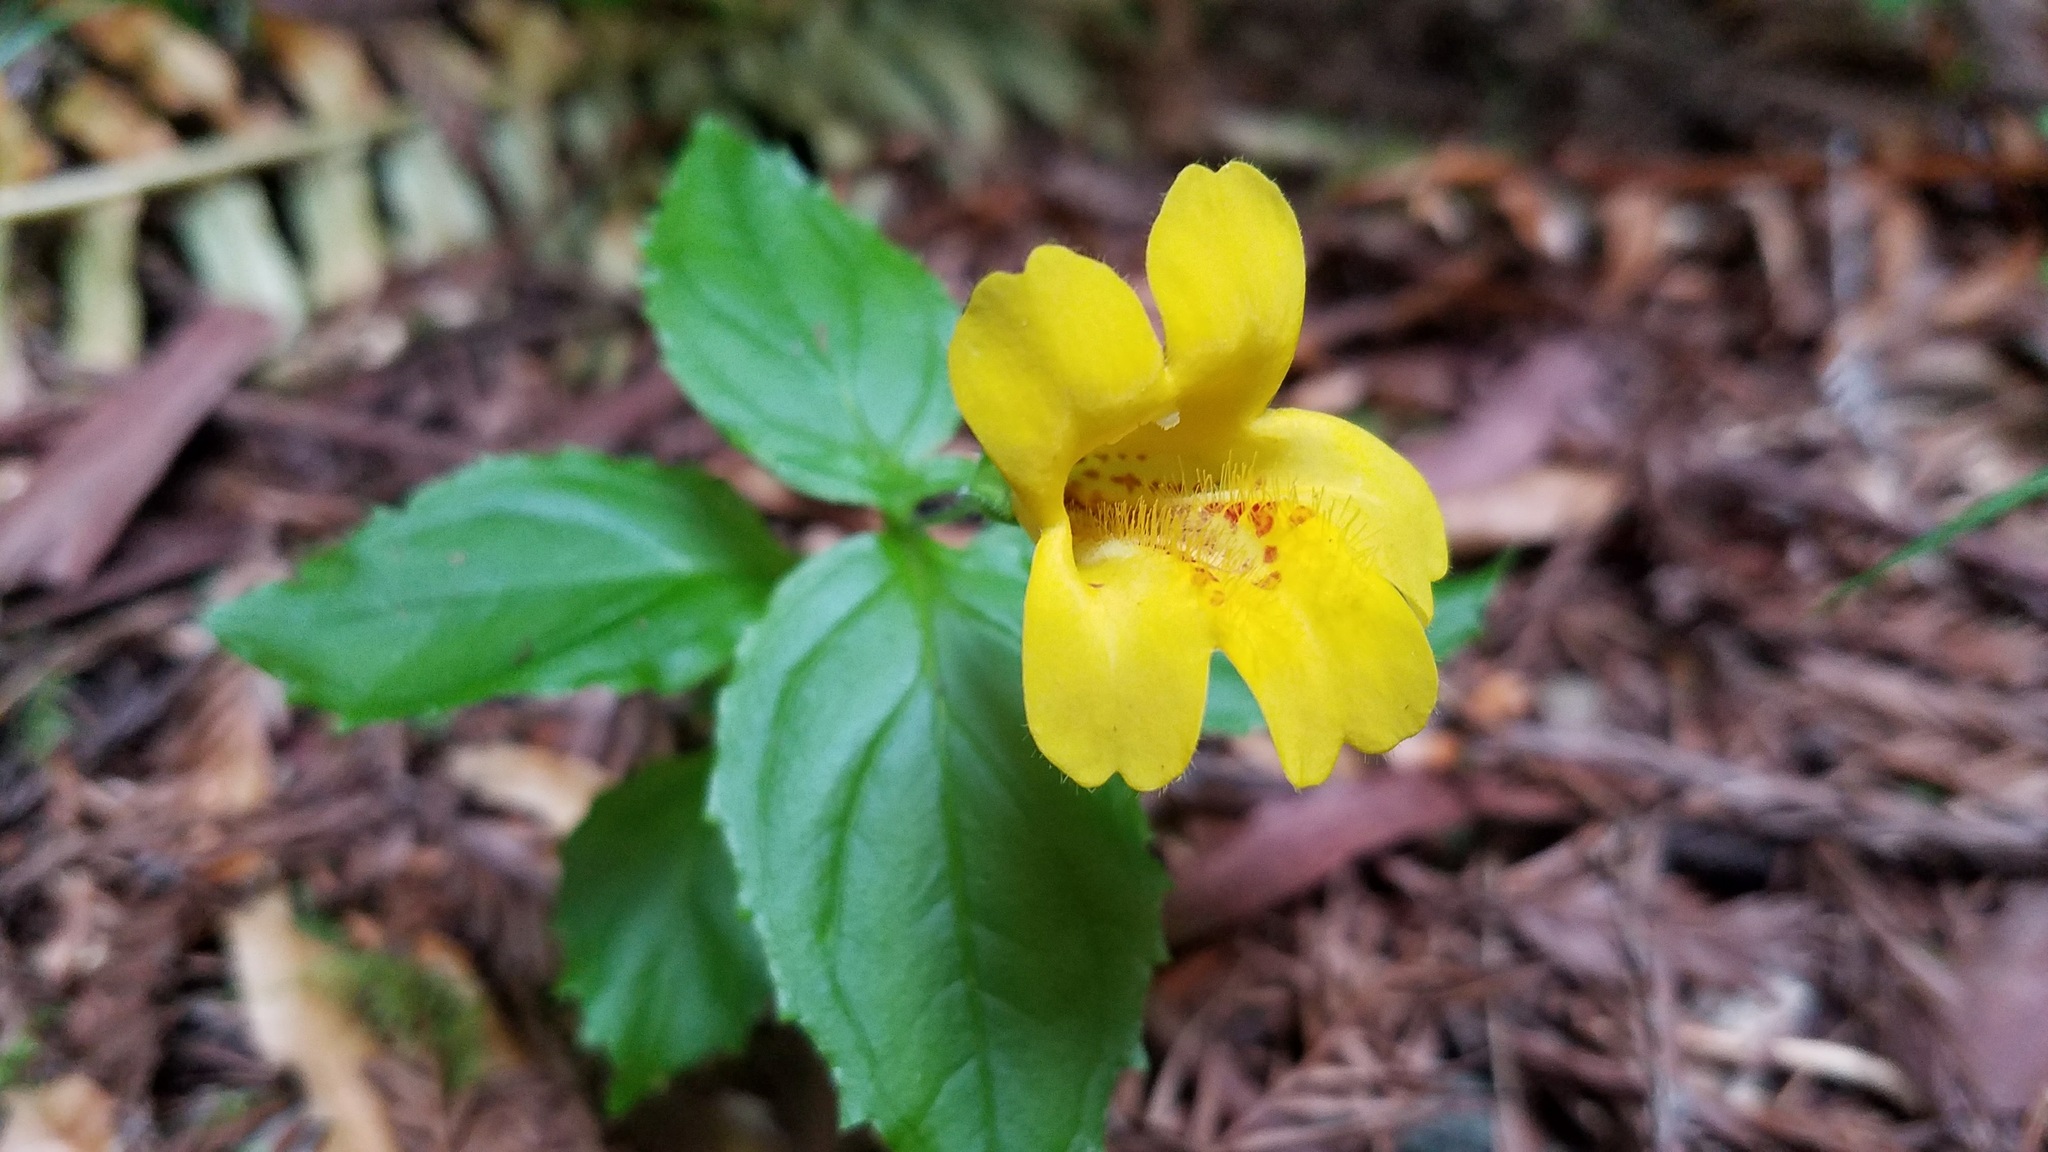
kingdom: Plantae
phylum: Tracheophyta
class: Magnoliopsida
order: Lamiales
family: Phrymaceae
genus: Erythranthe
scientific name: Erythranthe dentata
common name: Coastal monkeyflower
